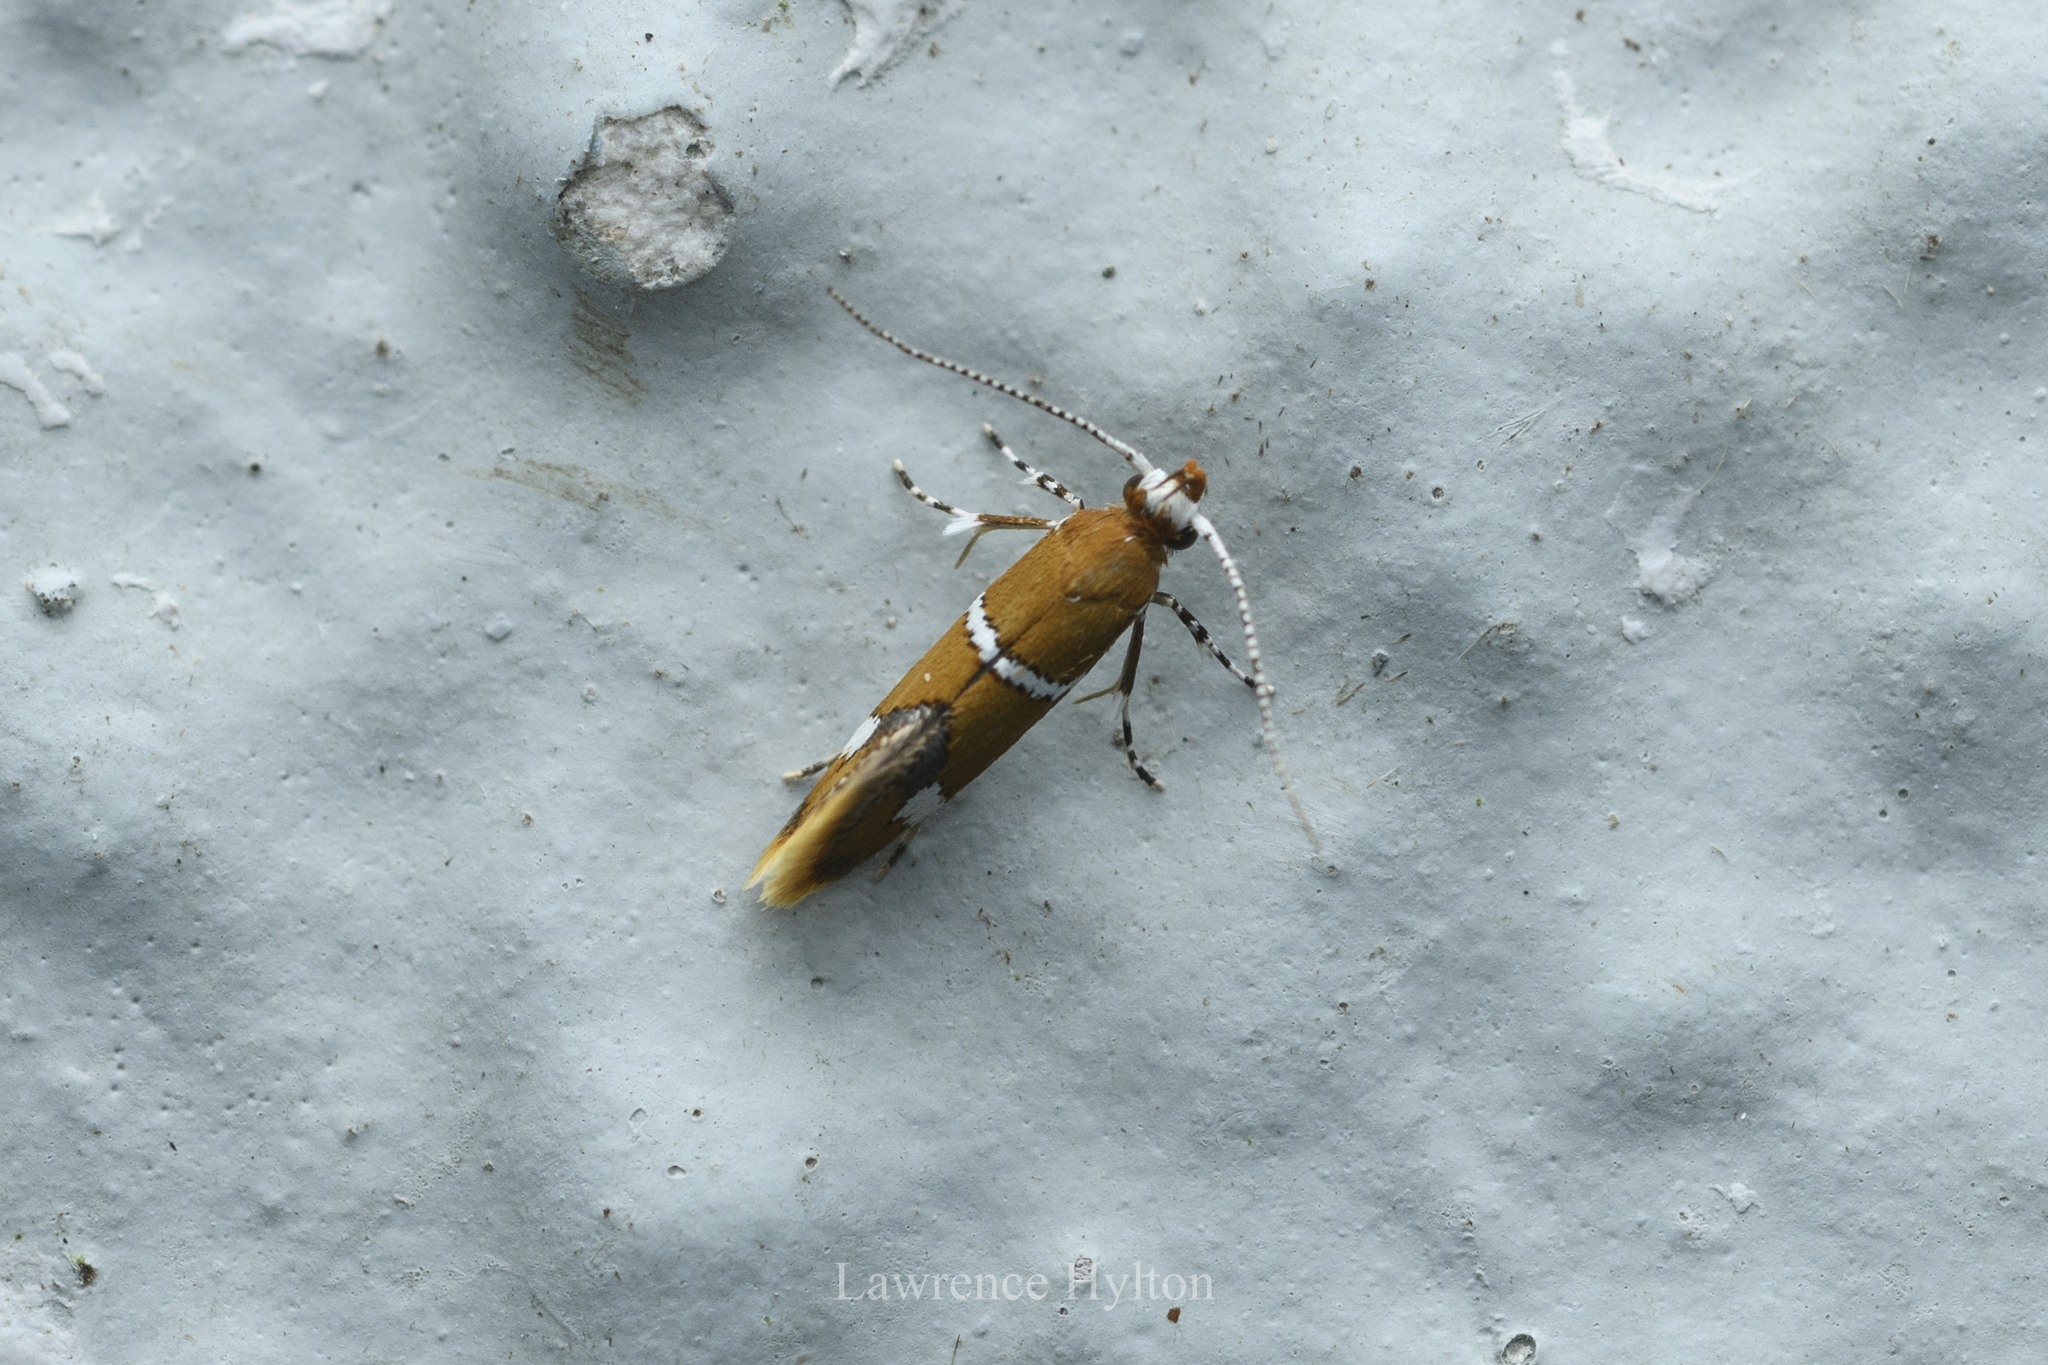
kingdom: Animalia
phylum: Arthropoda
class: Insecta
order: Lepidoptera
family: Oecophoridae
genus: Promalactis
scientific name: Promalactis albisquama
